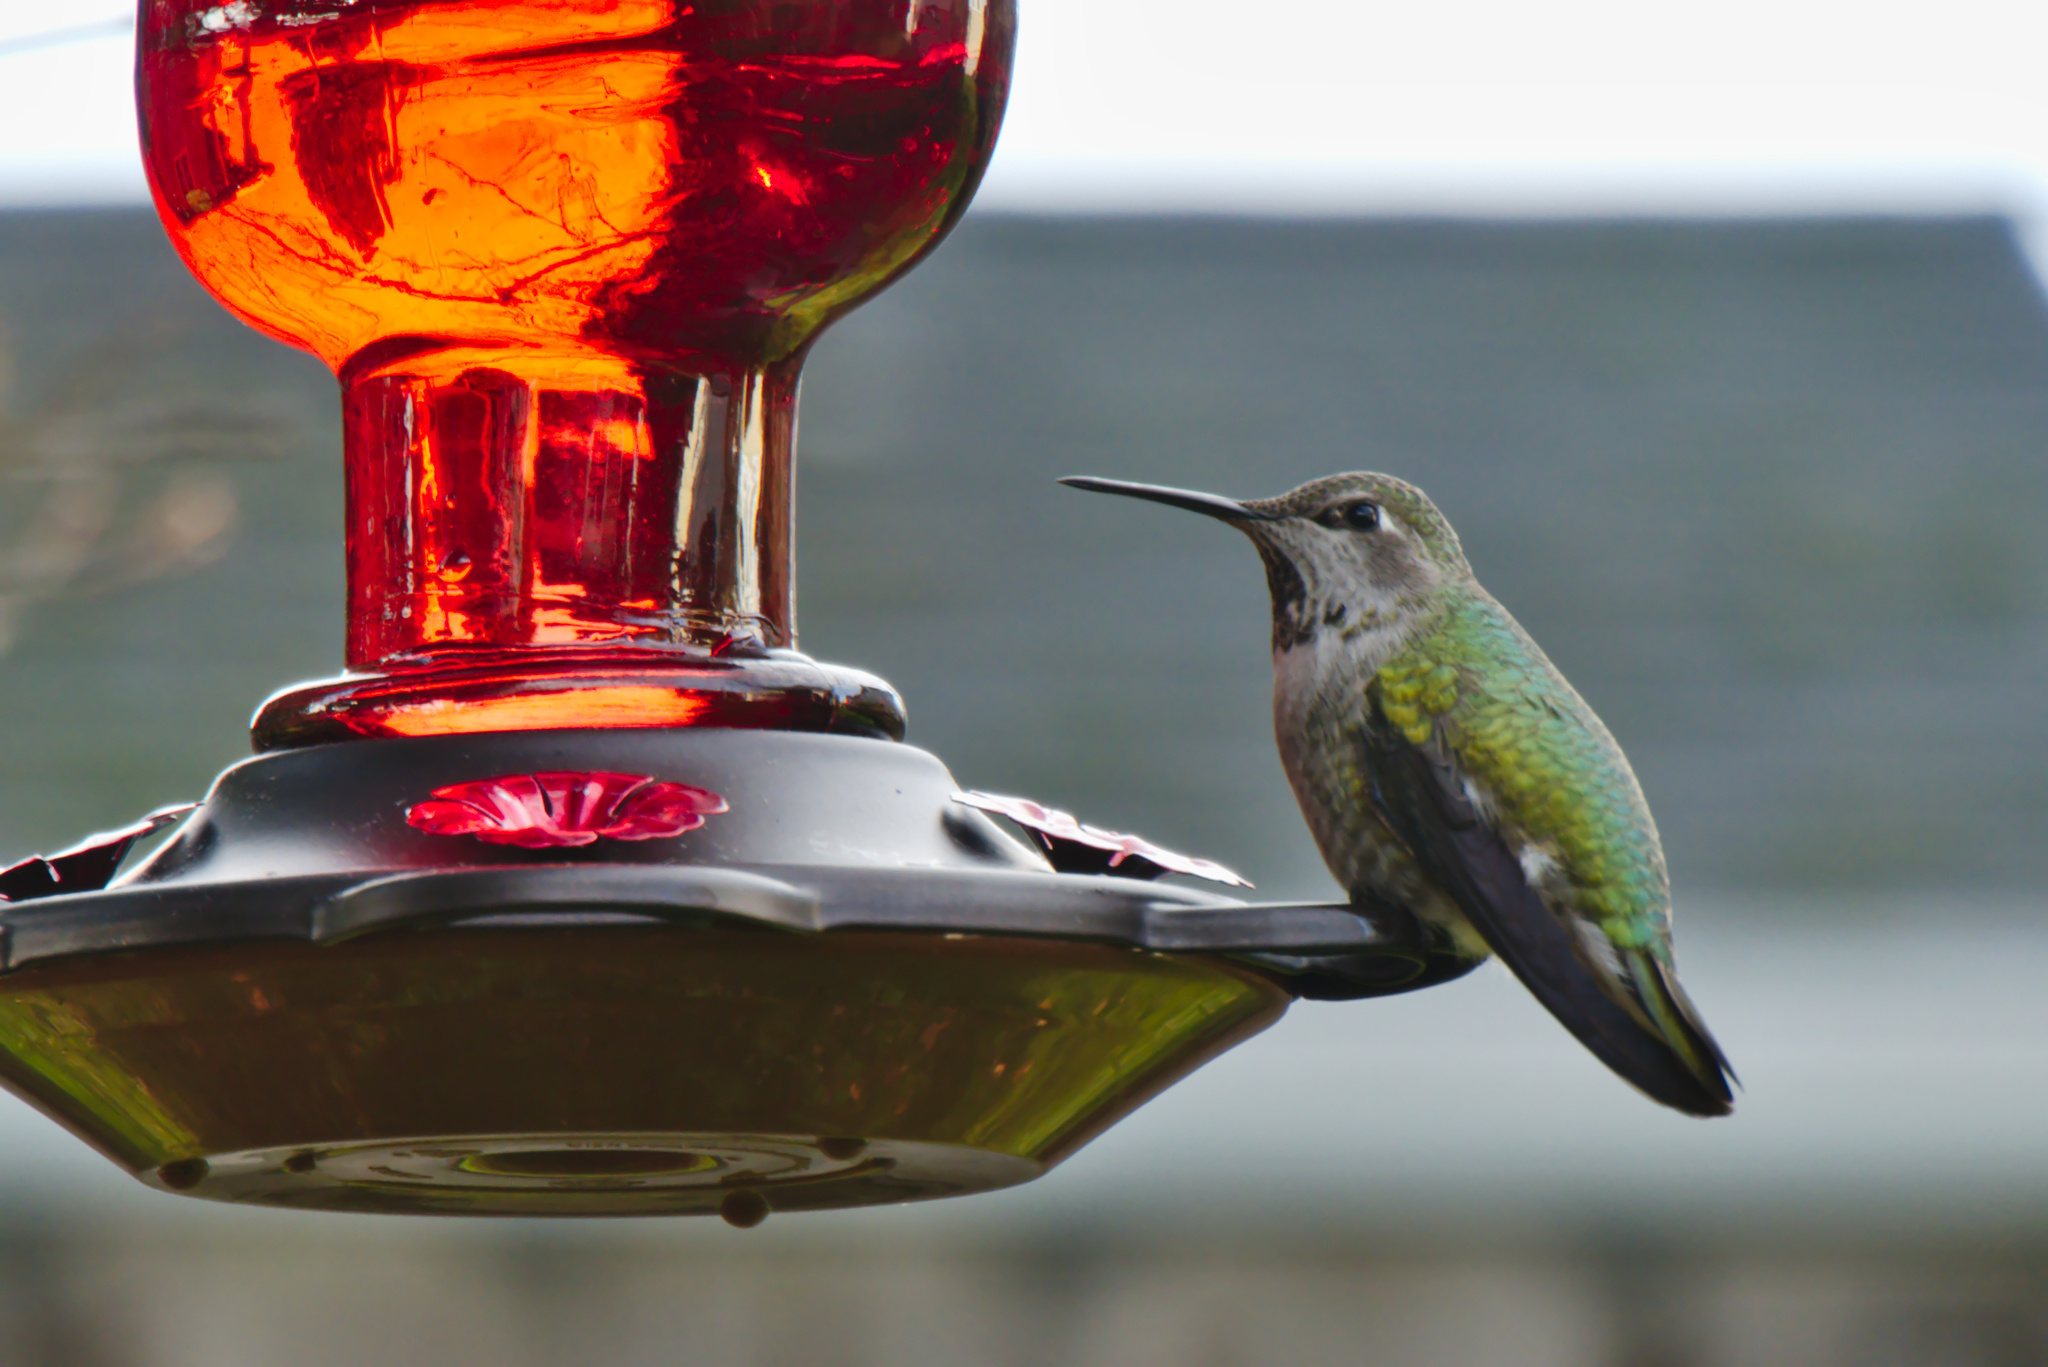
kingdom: Animalia
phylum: Chordata
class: Aves
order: Apodiformes
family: Trochilidae
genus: Calypte
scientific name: Calypte anna
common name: Anna's hummingbird
